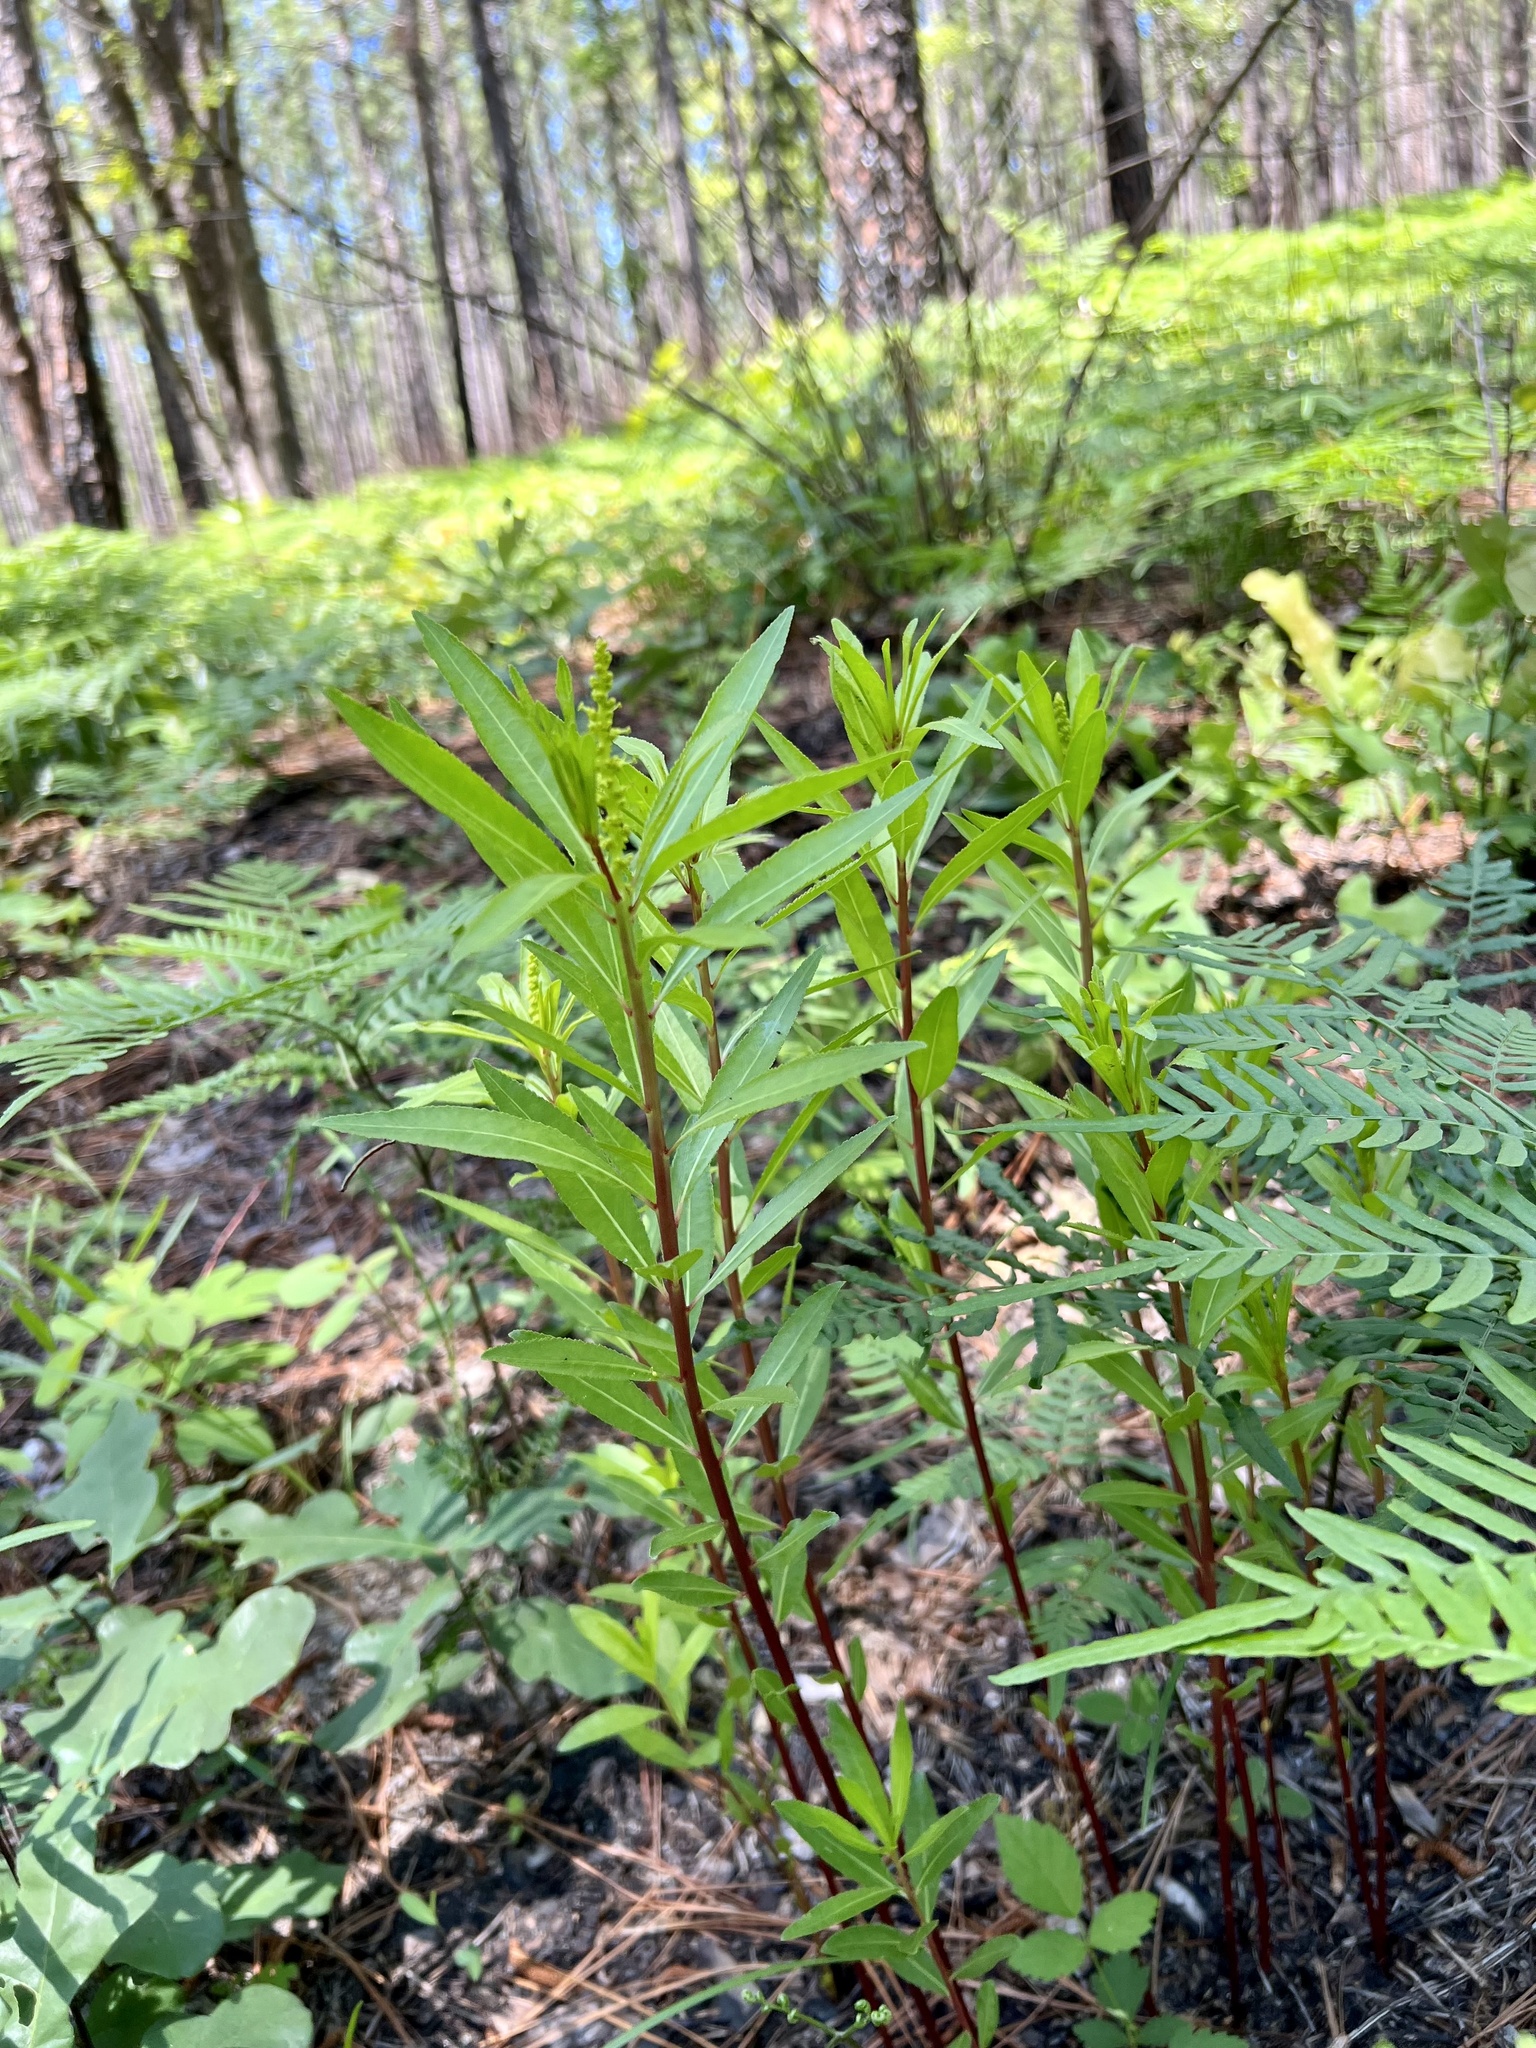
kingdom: Plantae
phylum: Tracheophyta
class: Magnoliopsida
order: Malpighiales
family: Euphorbiaceae
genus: Stillingia
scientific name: Stillingia sylvatica
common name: Queen's-delight
